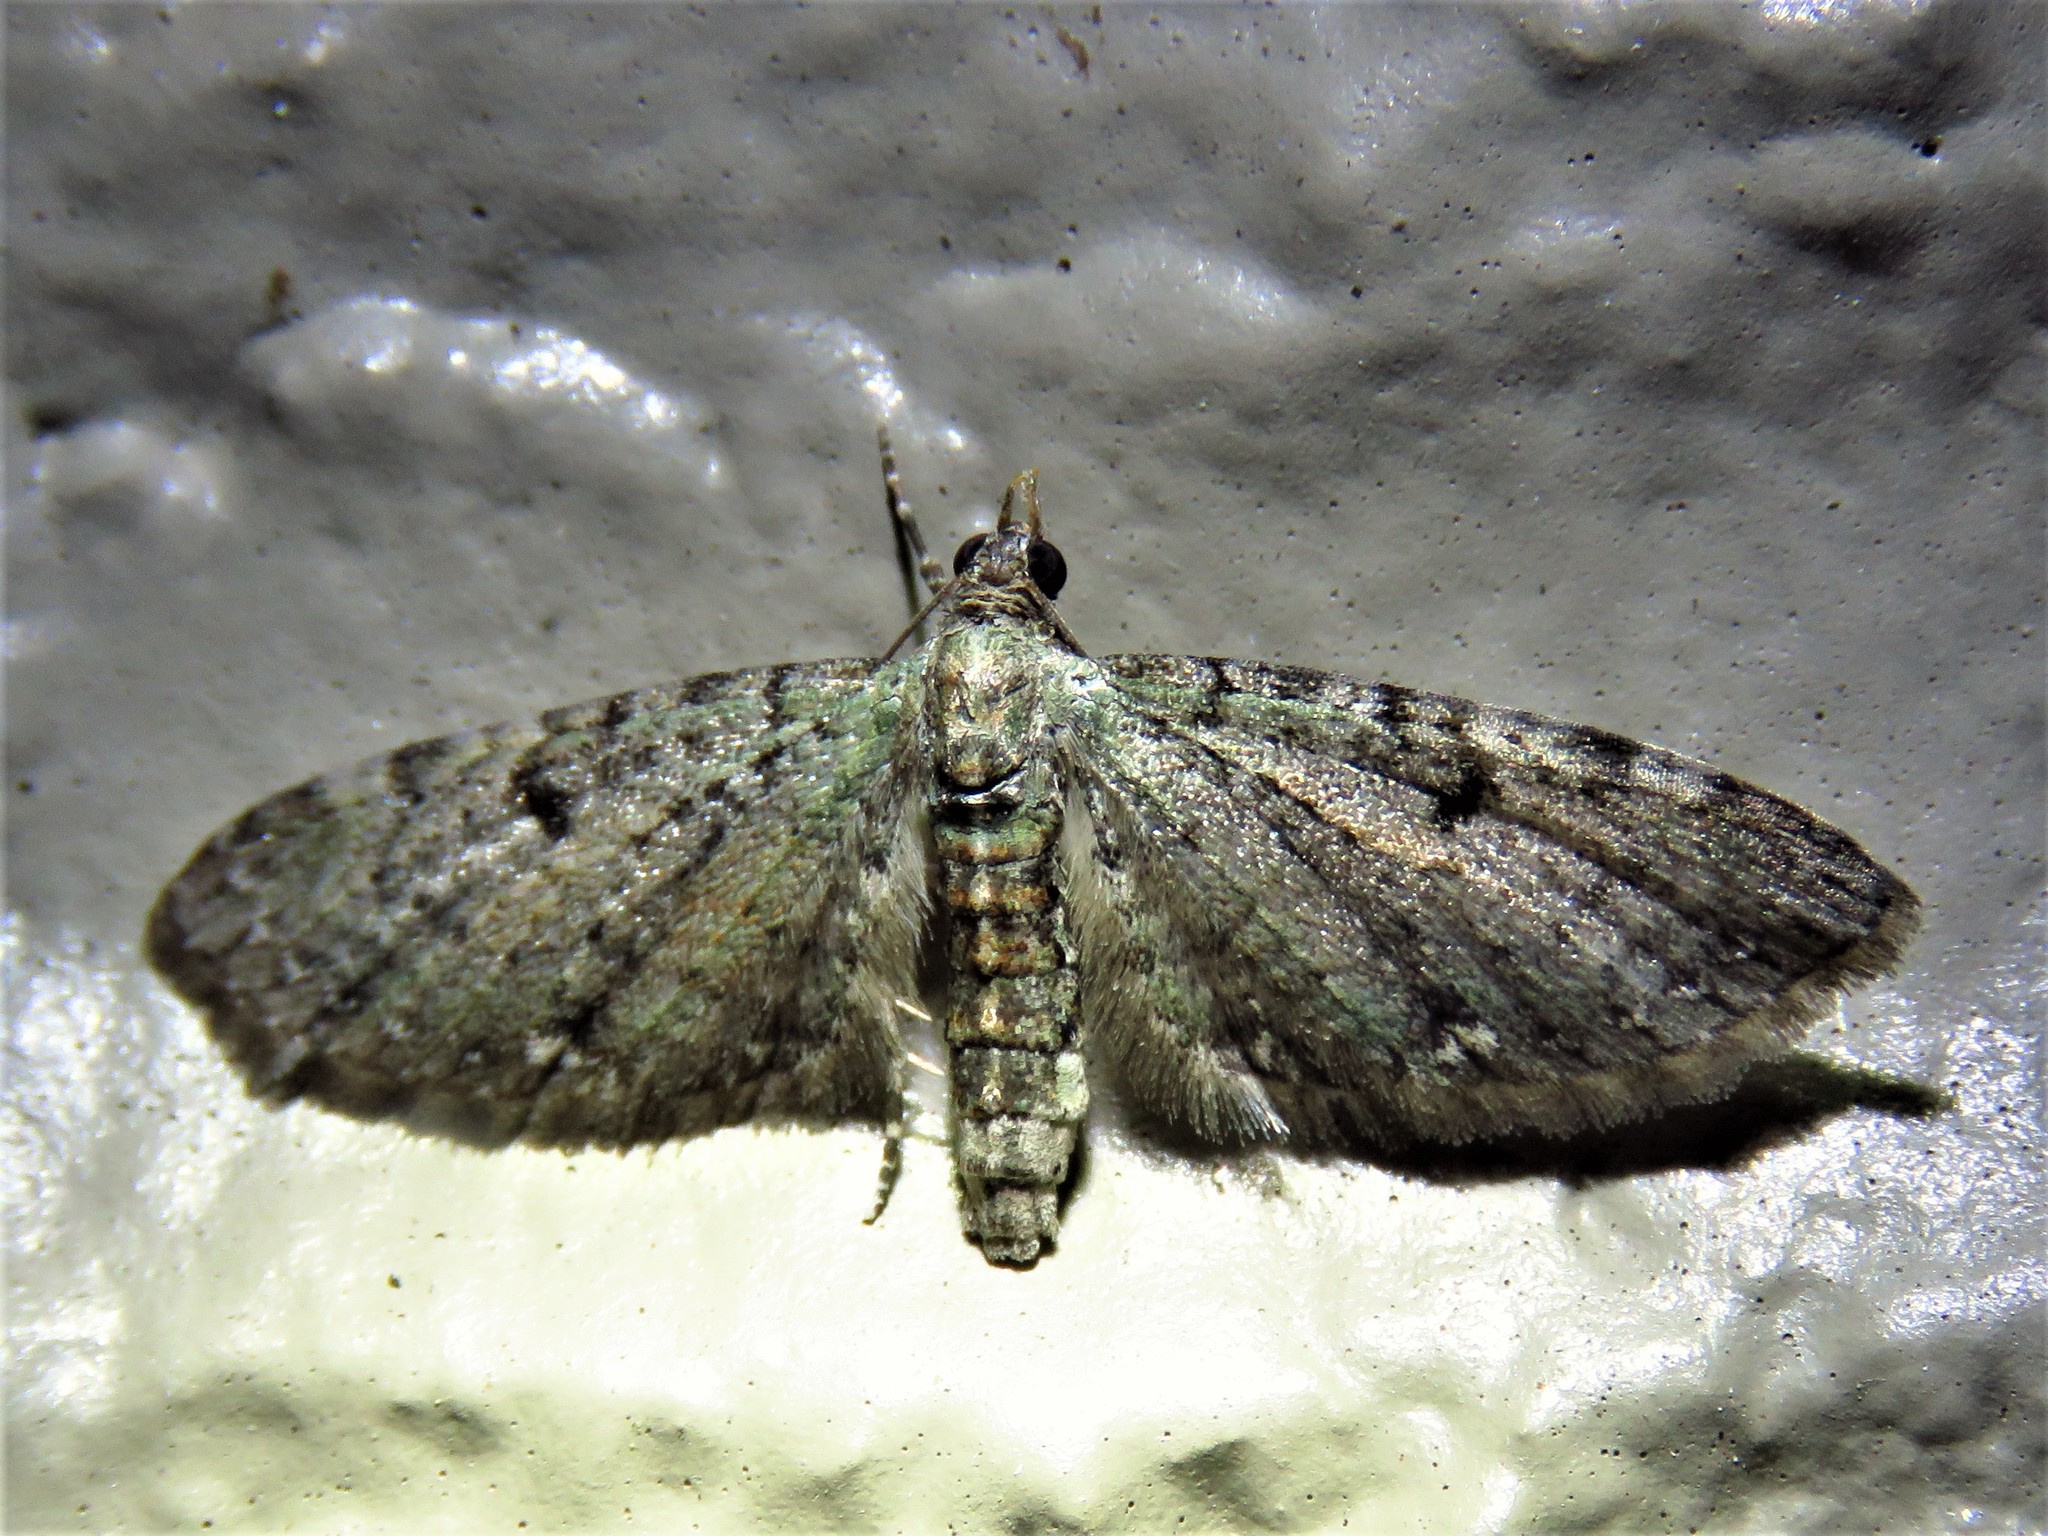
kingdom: Animalia
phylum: Arthropoda
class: Insecta
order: Lepidoptera
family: Geometridae
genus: Eupithecia
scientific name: Eupithecia miserulata
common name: Common eupithecia
